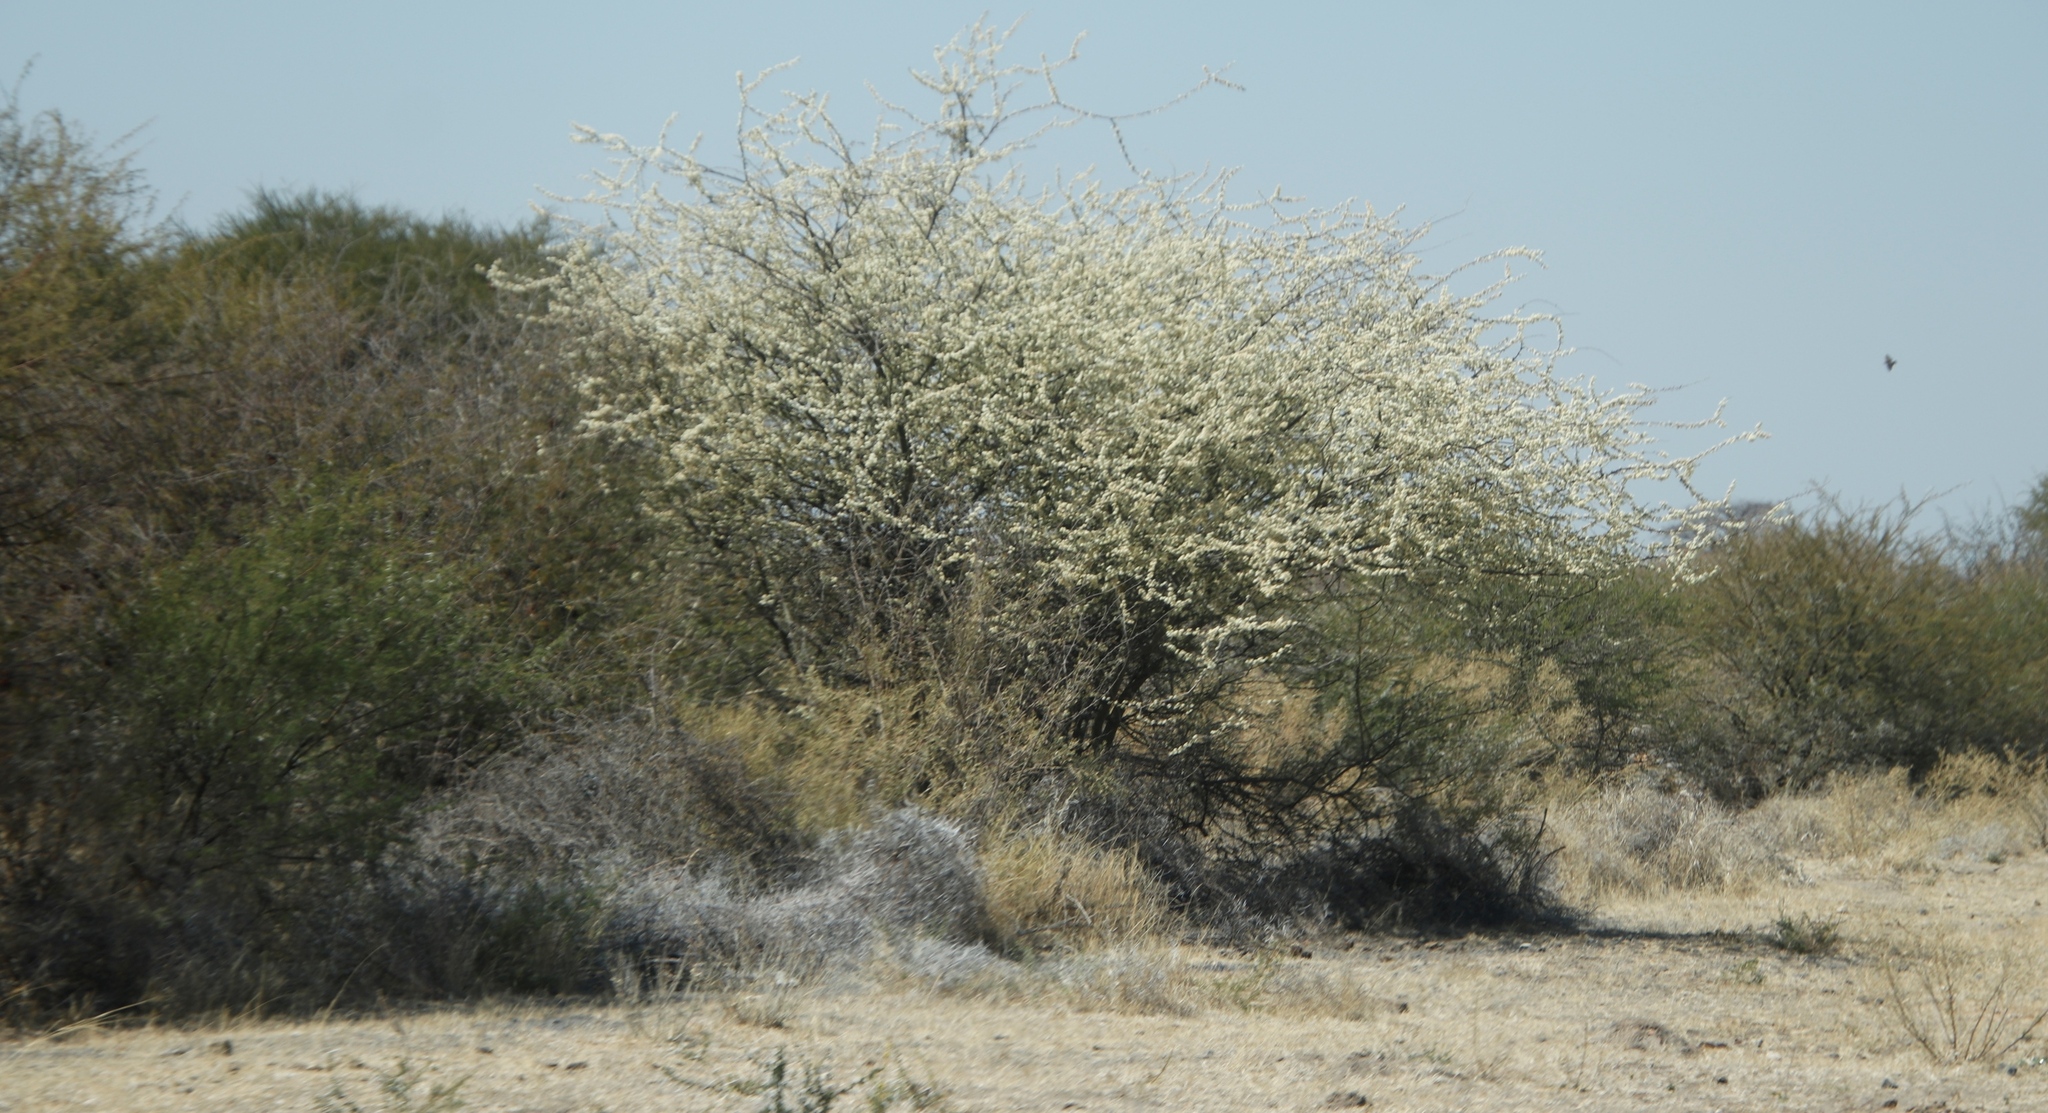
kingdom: Plantae
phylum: Tracheophyta
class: Magnoliopsida
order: Fabales
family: Fabaceae
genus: Senegalia
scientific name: Senegalia mellifera
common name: Hookthorn
